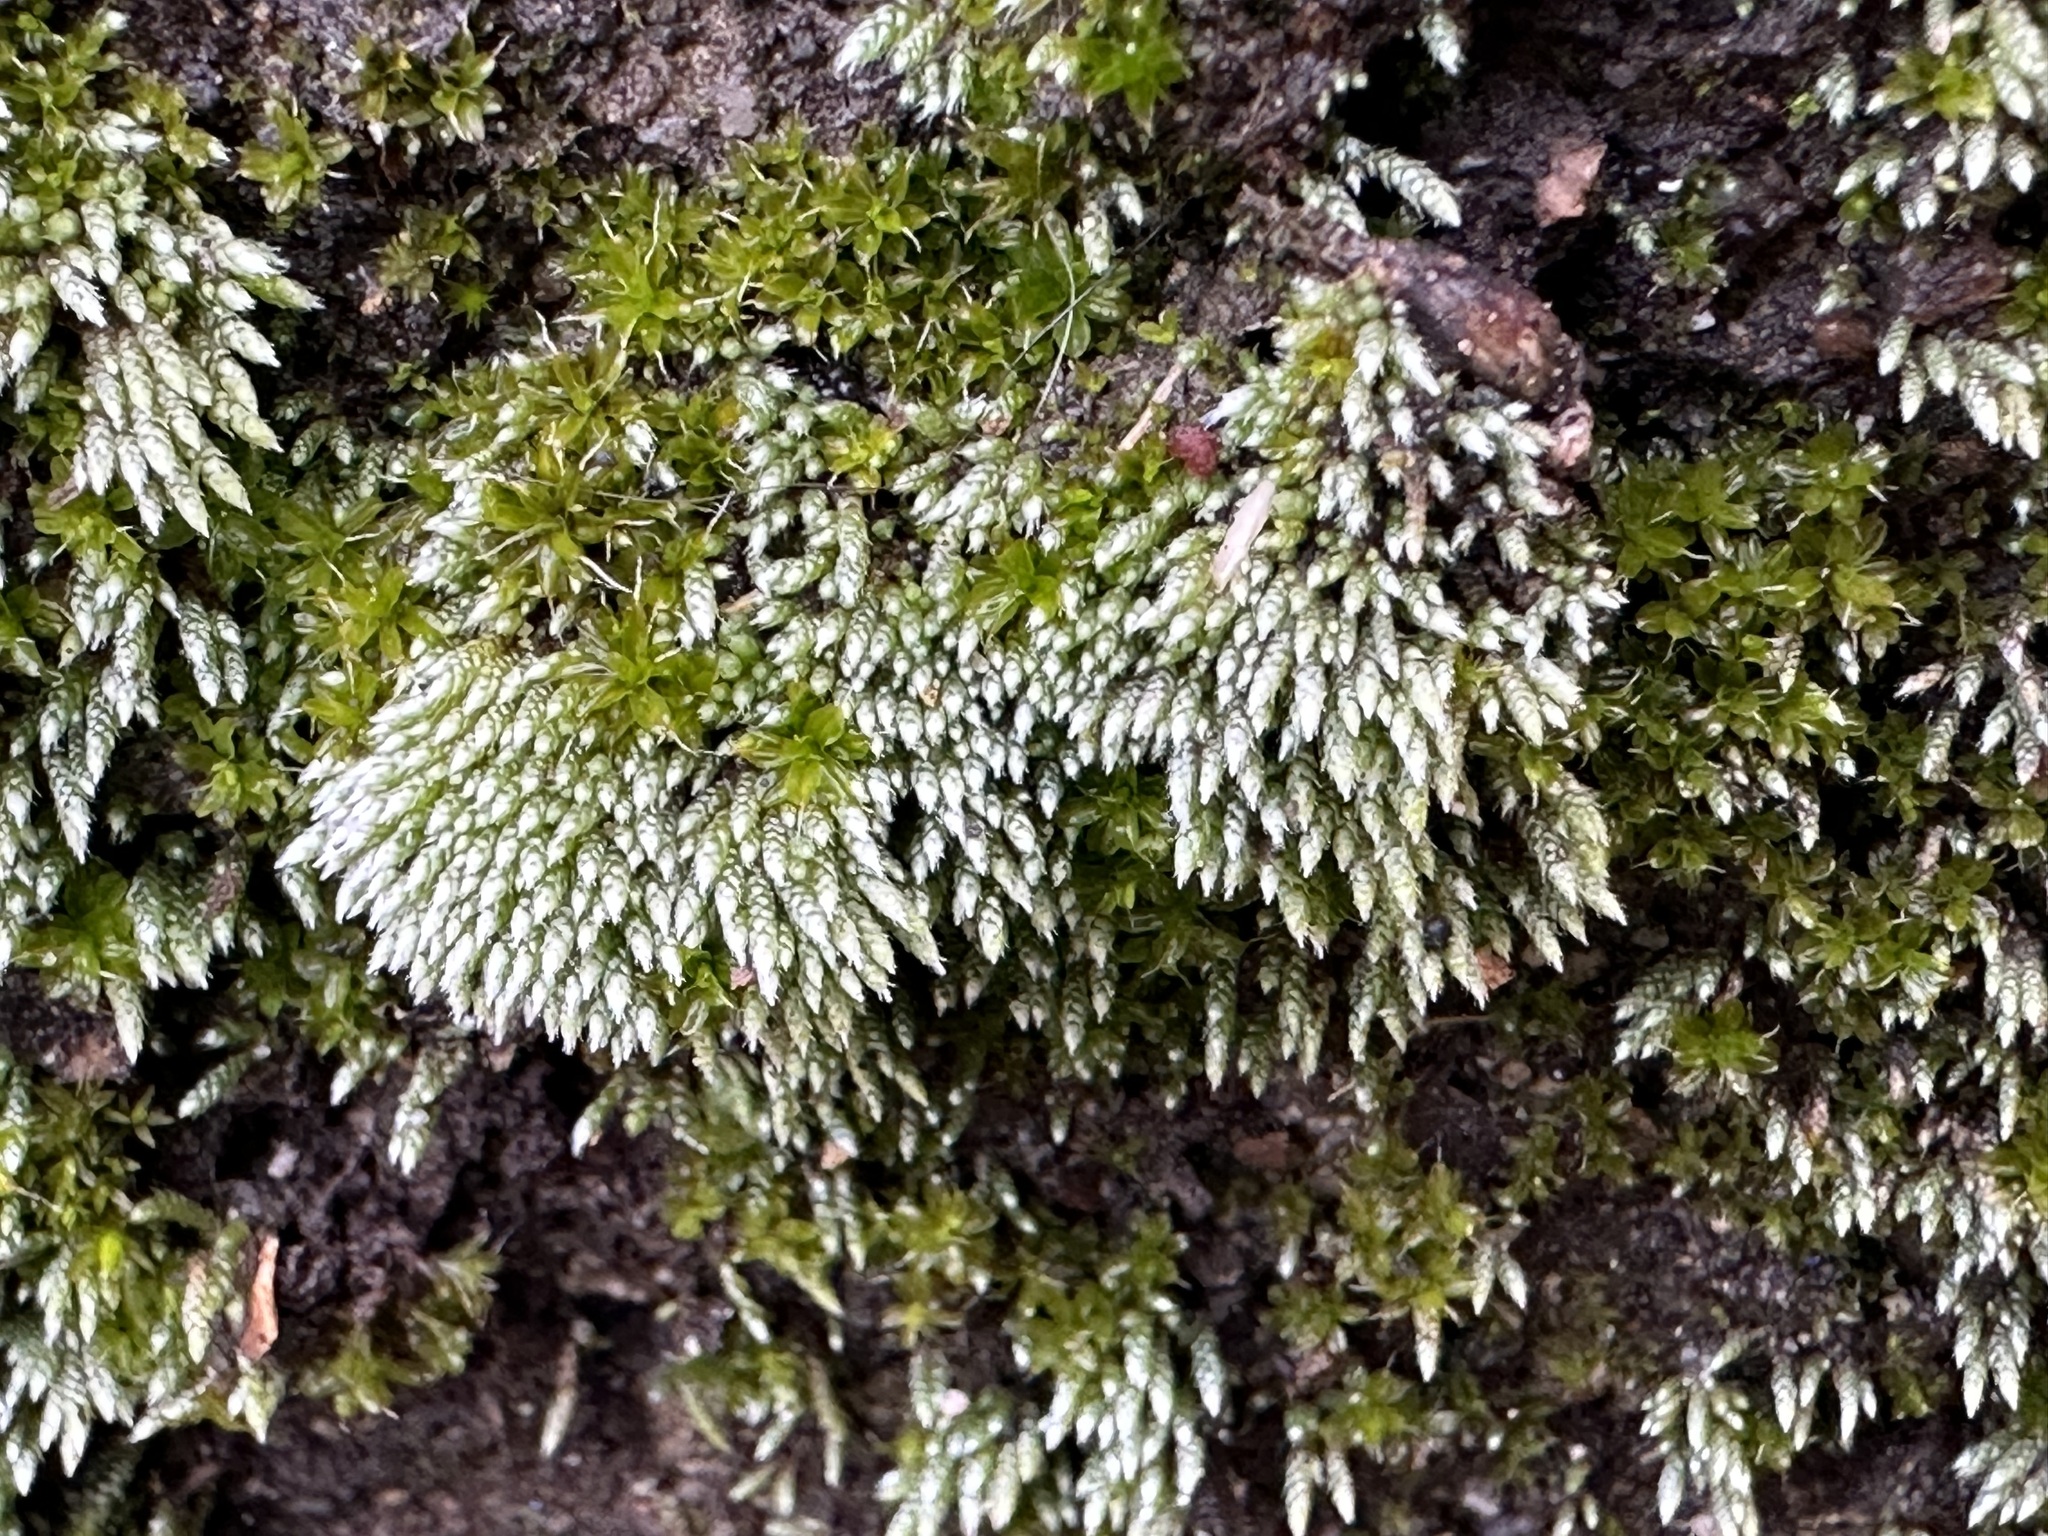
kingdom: Plantae
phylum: Bryophyta
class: Bryopsida
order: Bryales
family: Bryaceae
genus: Bryum
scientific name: Bryum argenteum
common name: Silver-moss
